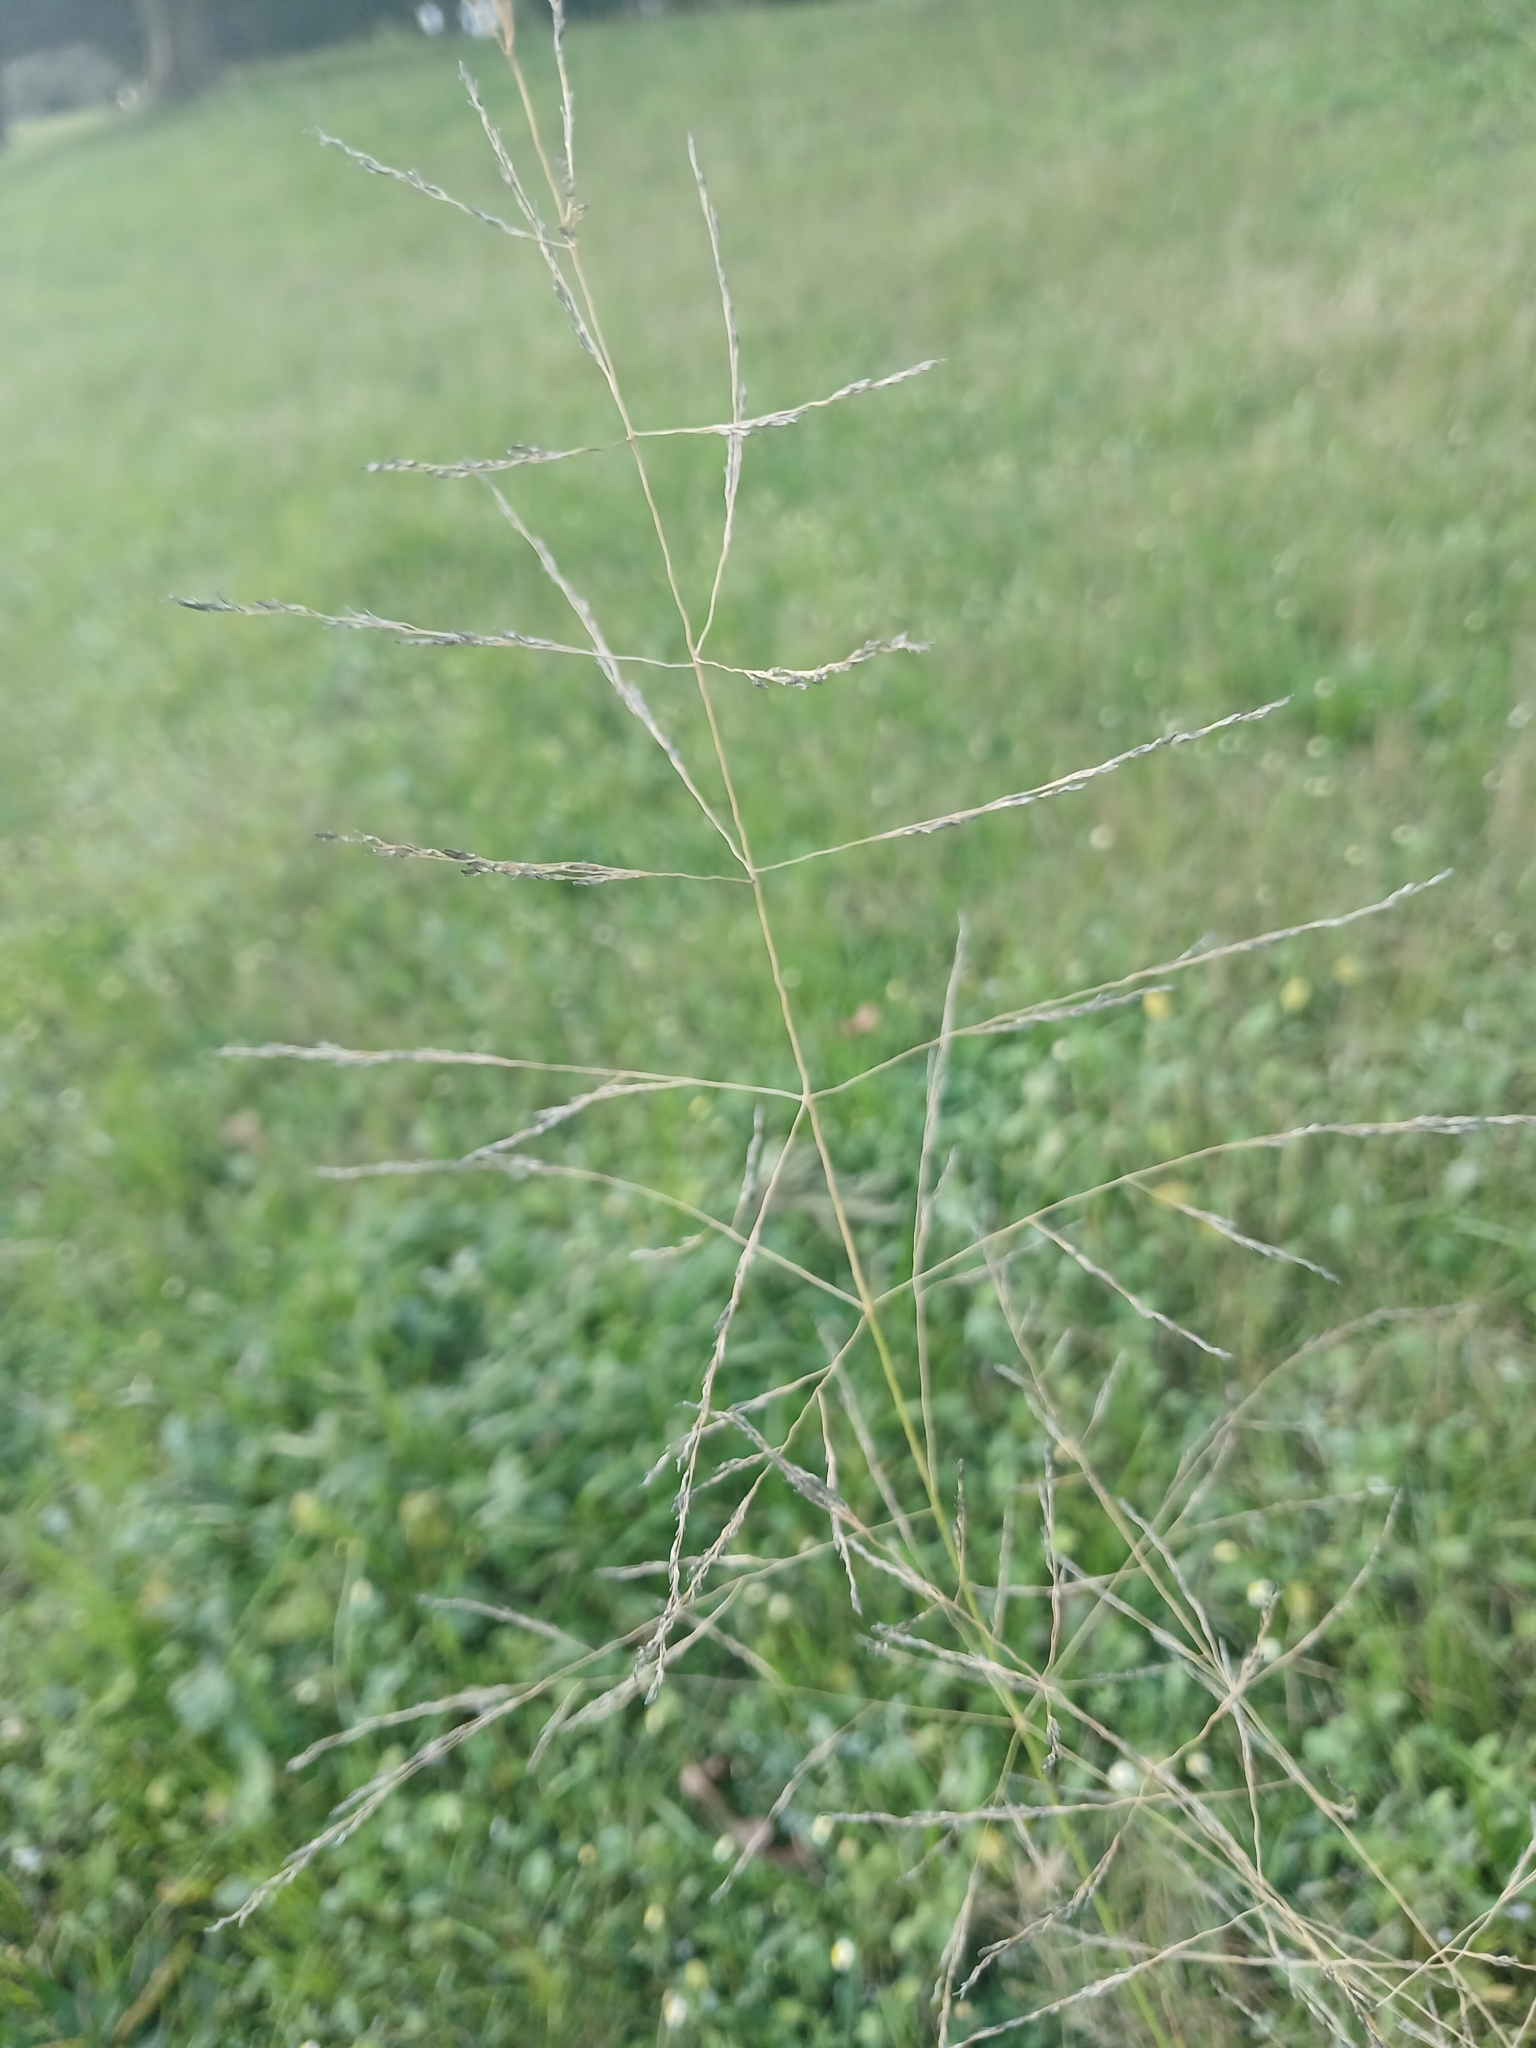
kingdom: Plantae
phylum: Tracheophyta
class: Liliopsida
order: Poales
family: Poaceae
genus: Eragrostis
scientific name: Eragrostis curvula
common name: African love-grass
